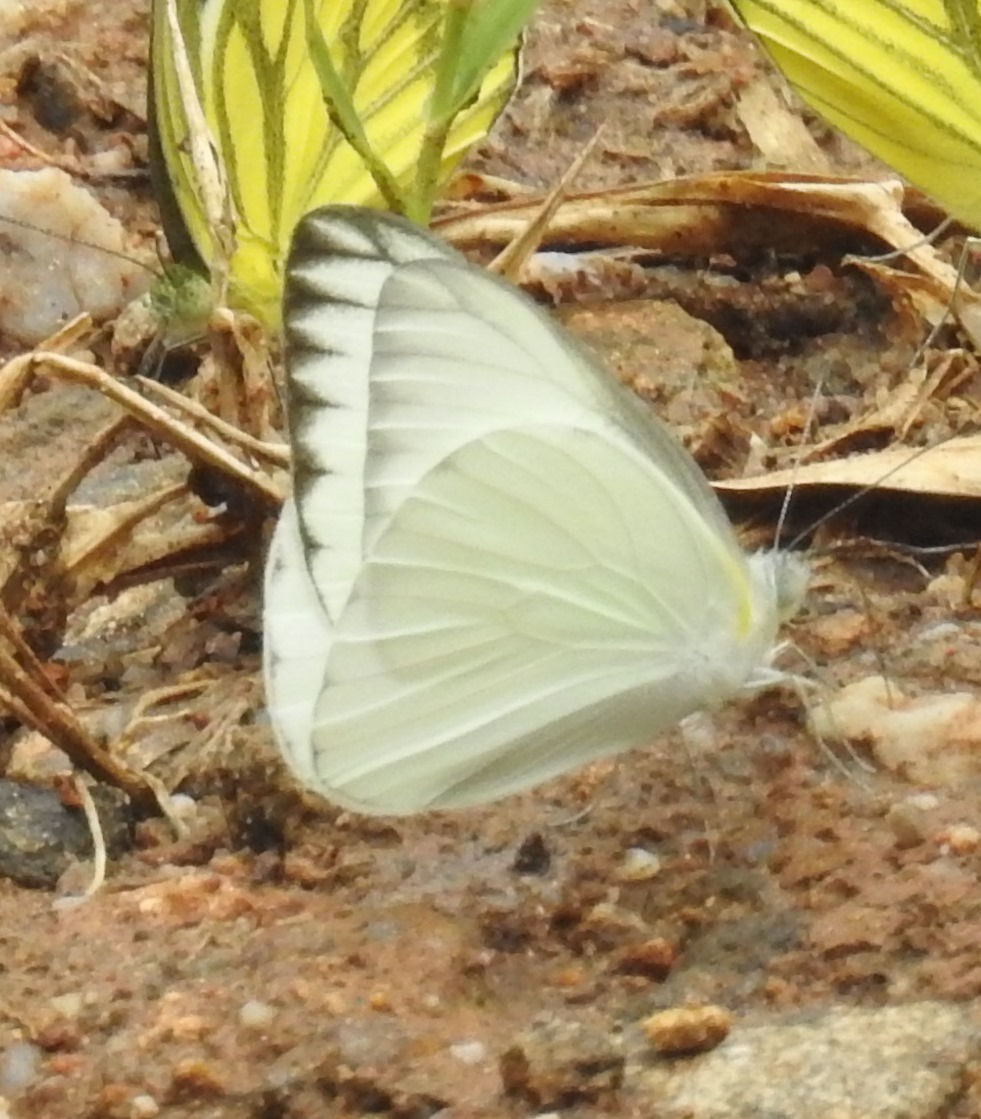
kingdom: Animalia
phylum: Arthropoda
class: Insecta
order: Lepidoptera
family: Pieridae
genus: Appias
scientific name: Appias libythea
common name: Striped albatross
